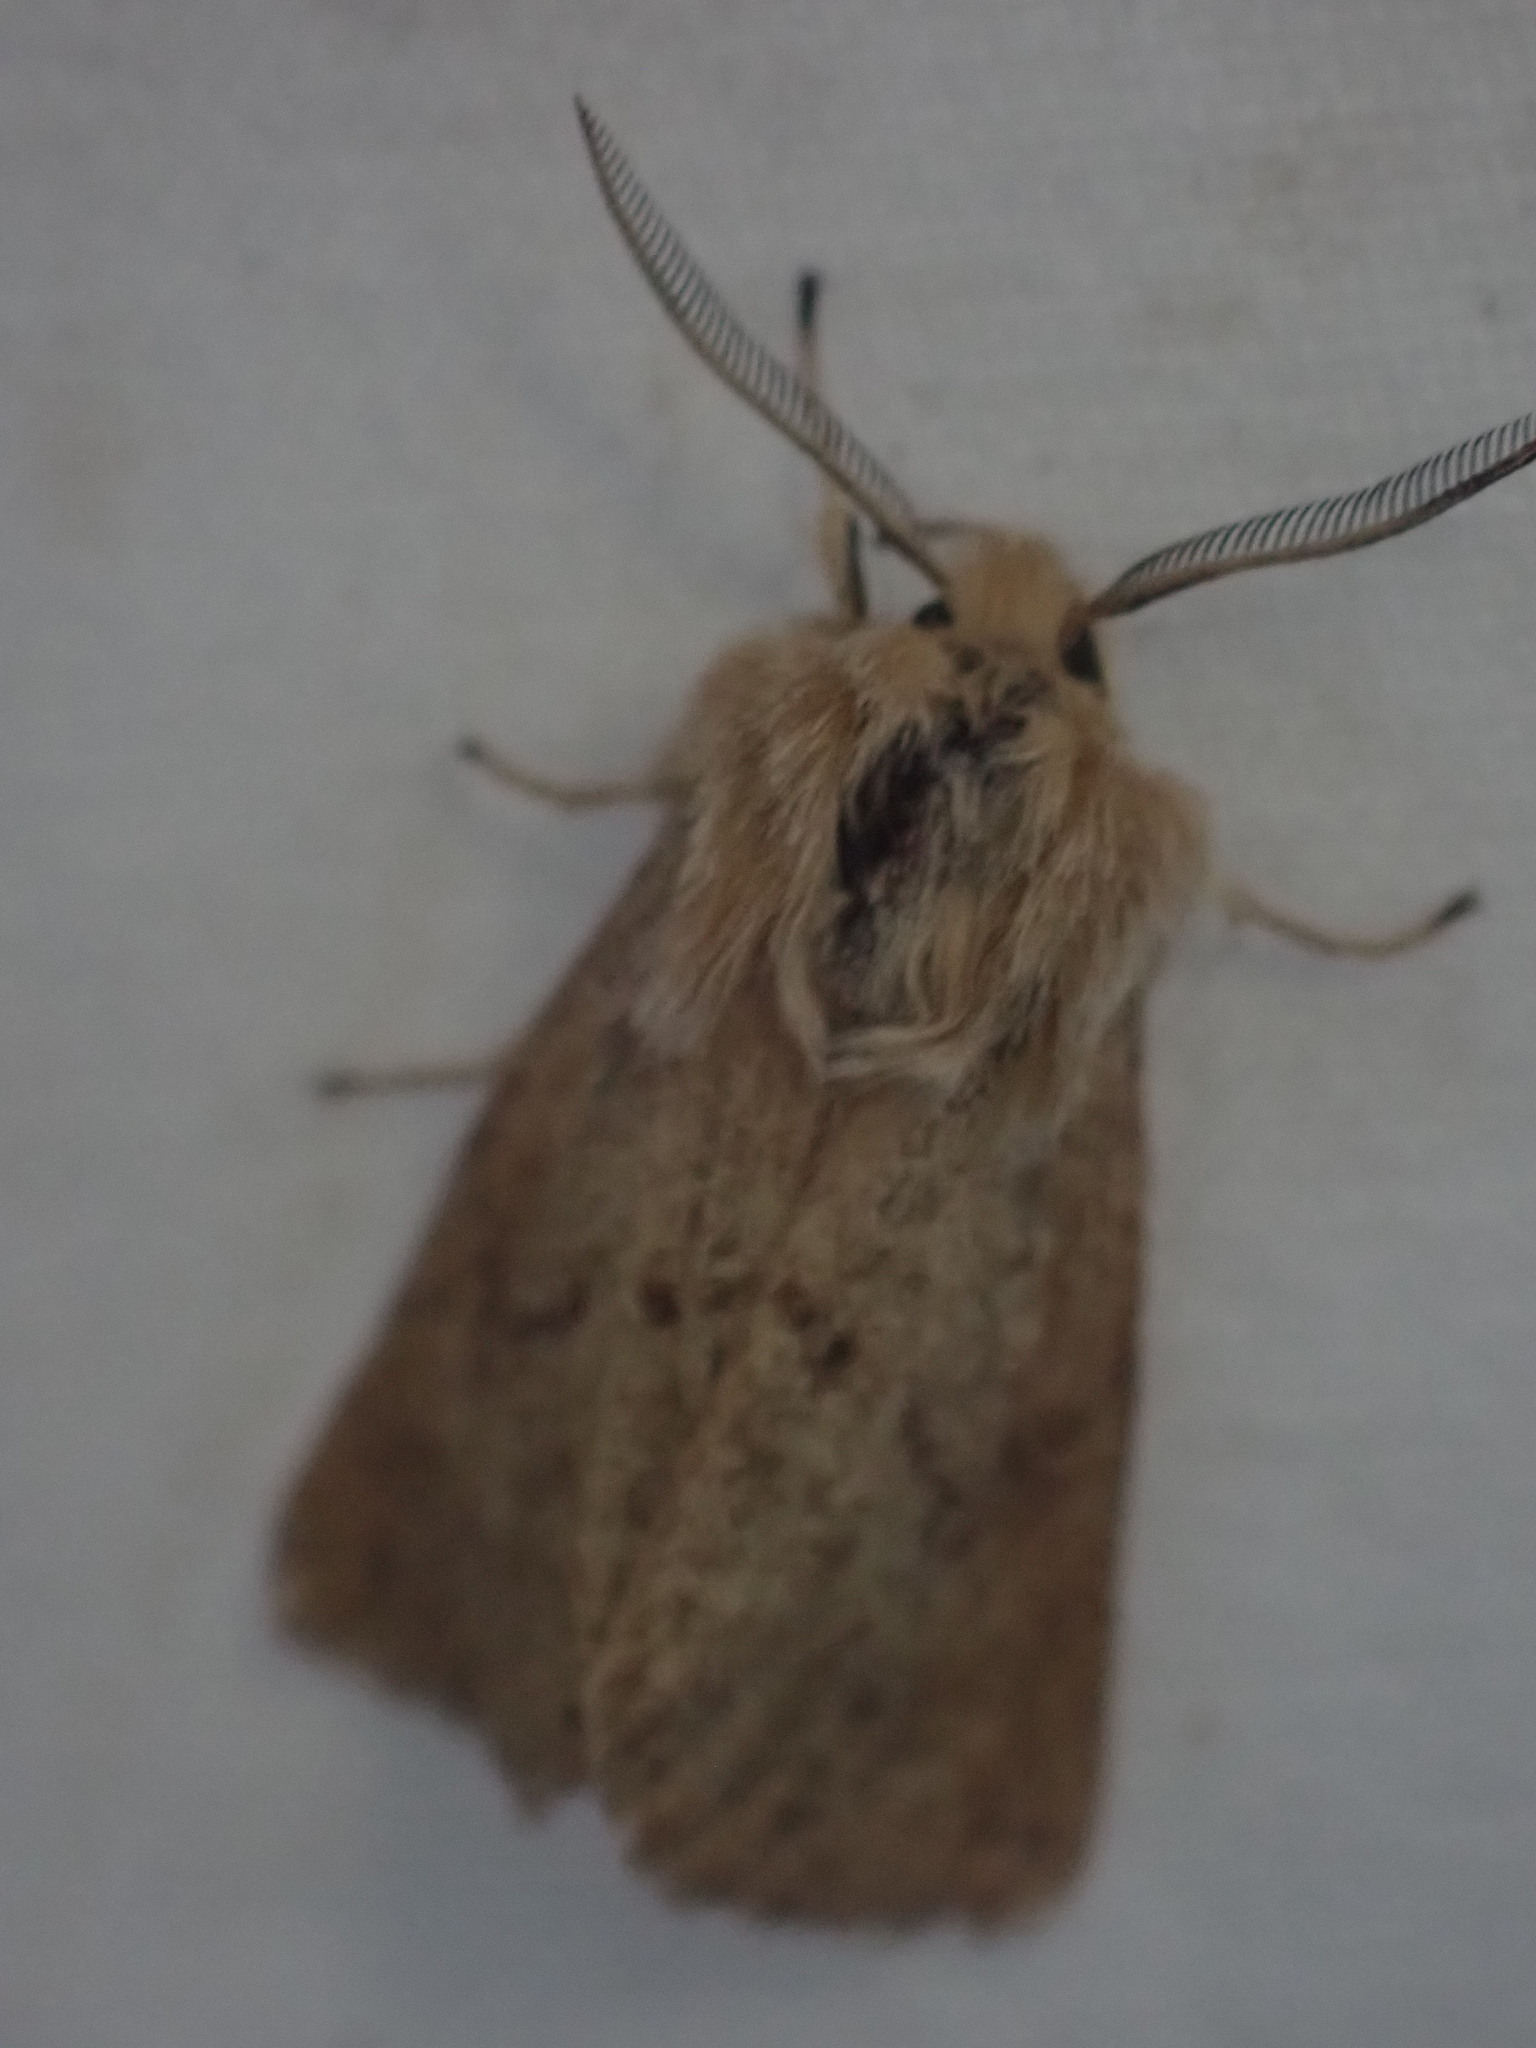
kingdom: Animalia
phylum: Arthropoda
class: Insecta
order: Lepidoptera
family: Erebidae
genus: Spilosoma
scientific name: Spilosoma vagans
